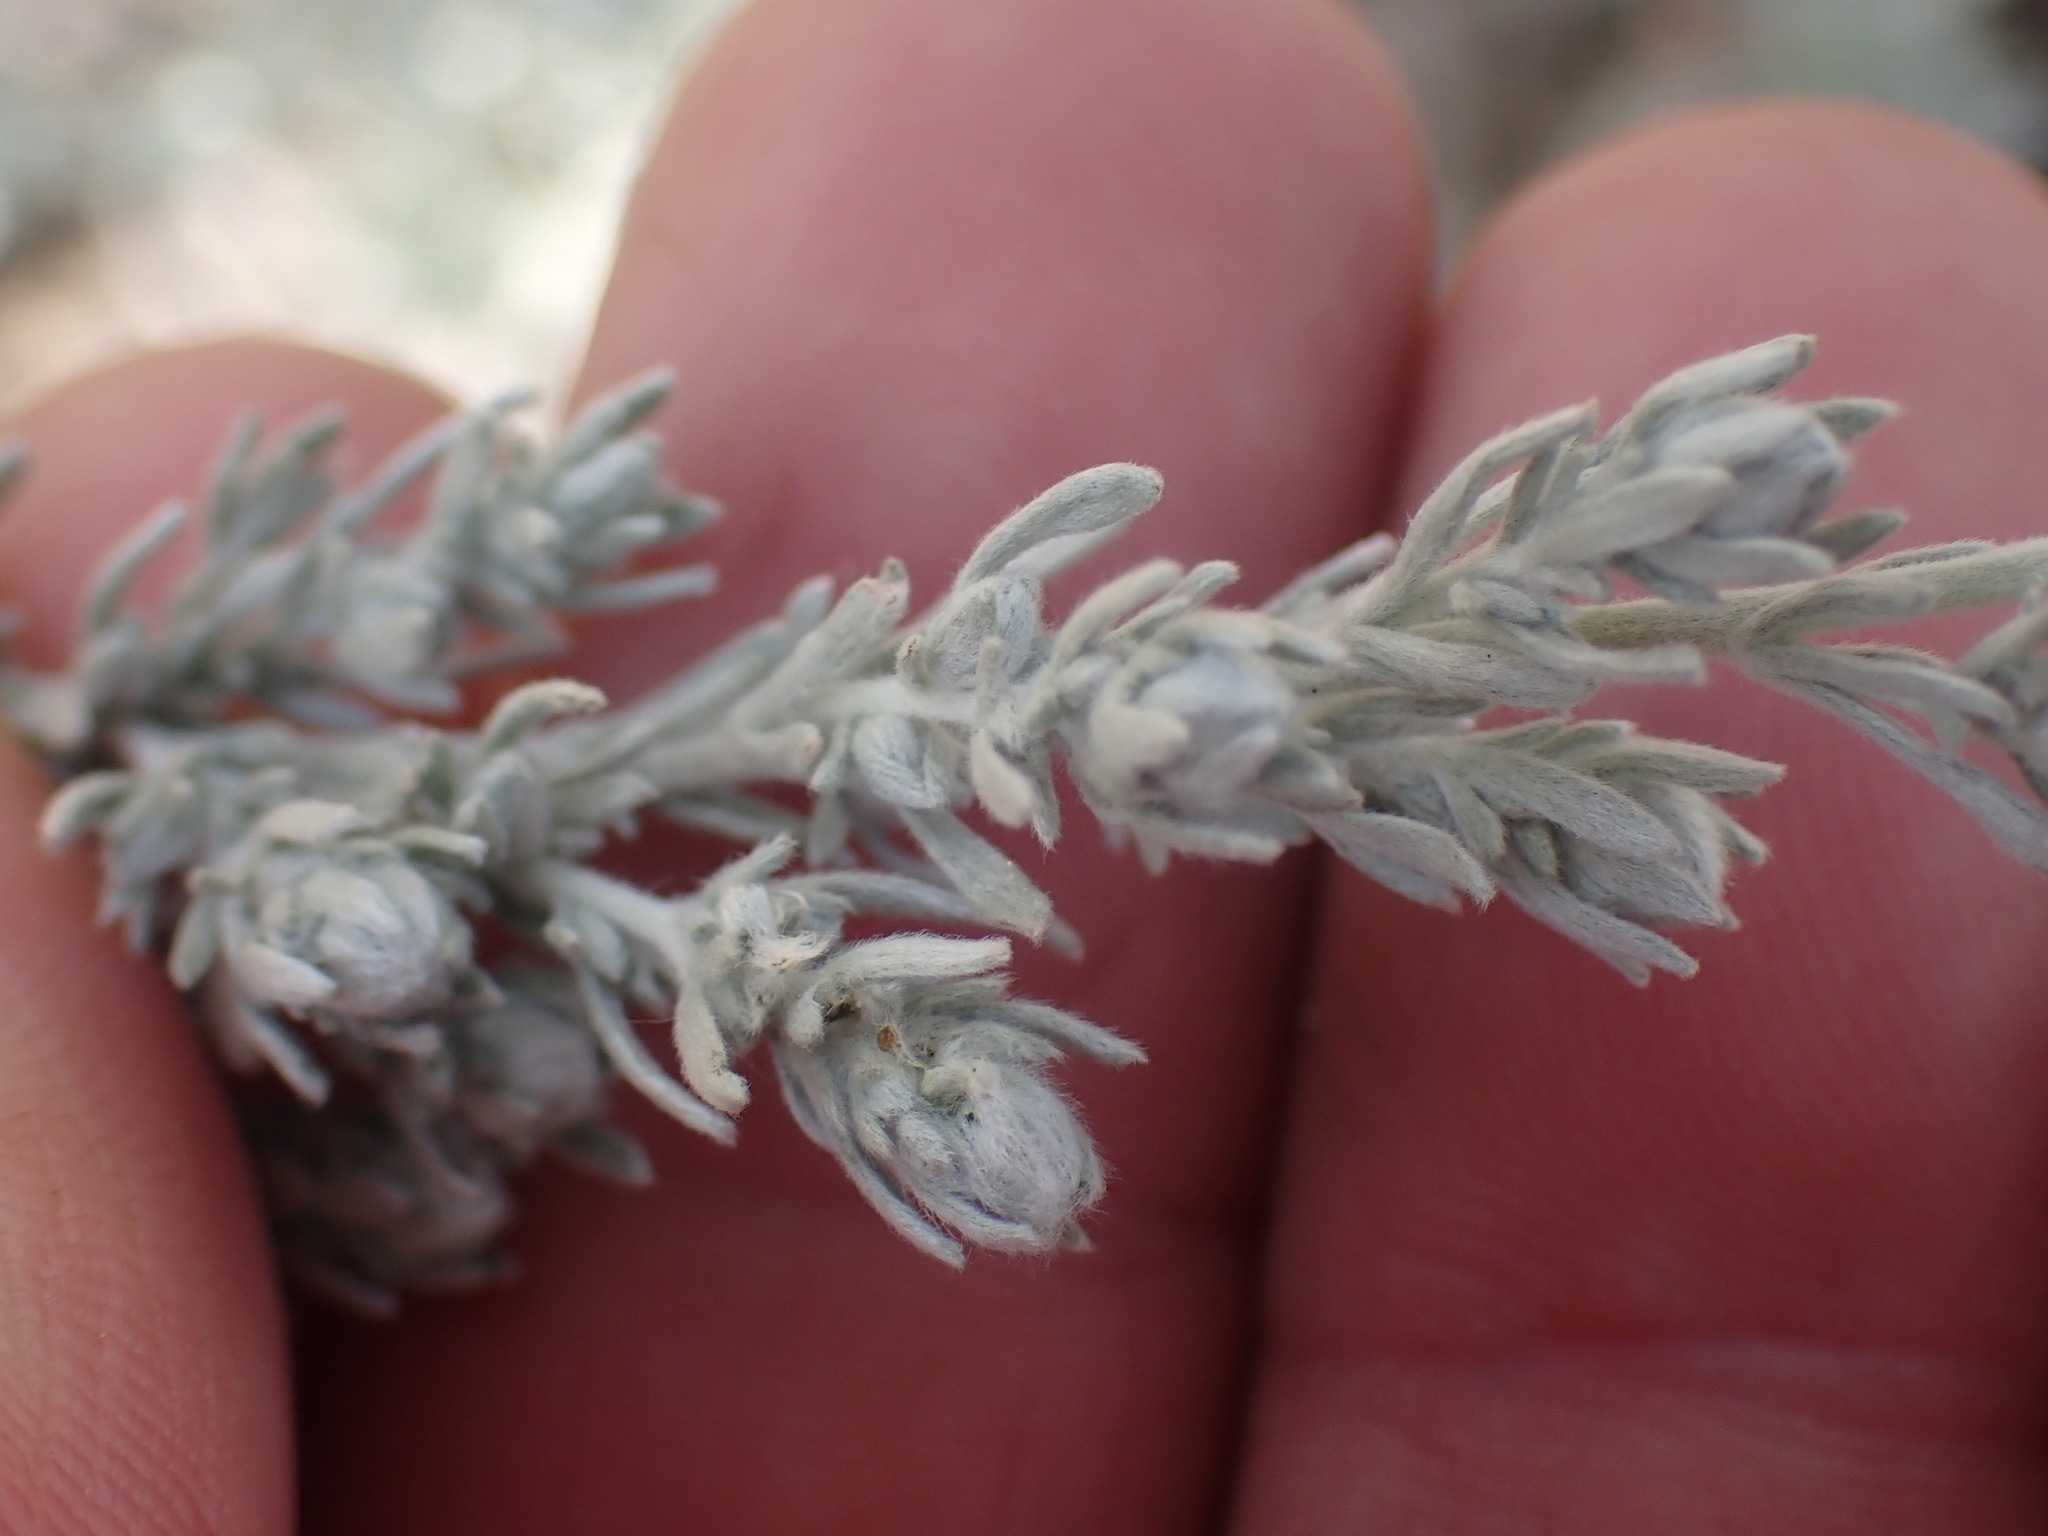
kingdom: Plantae
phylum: Tracheophyta
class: Magnoliopsida
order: Asterales
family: Asteraceae
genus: Artemisia
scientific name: Artemisia frigida
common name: Prairie sagewort
